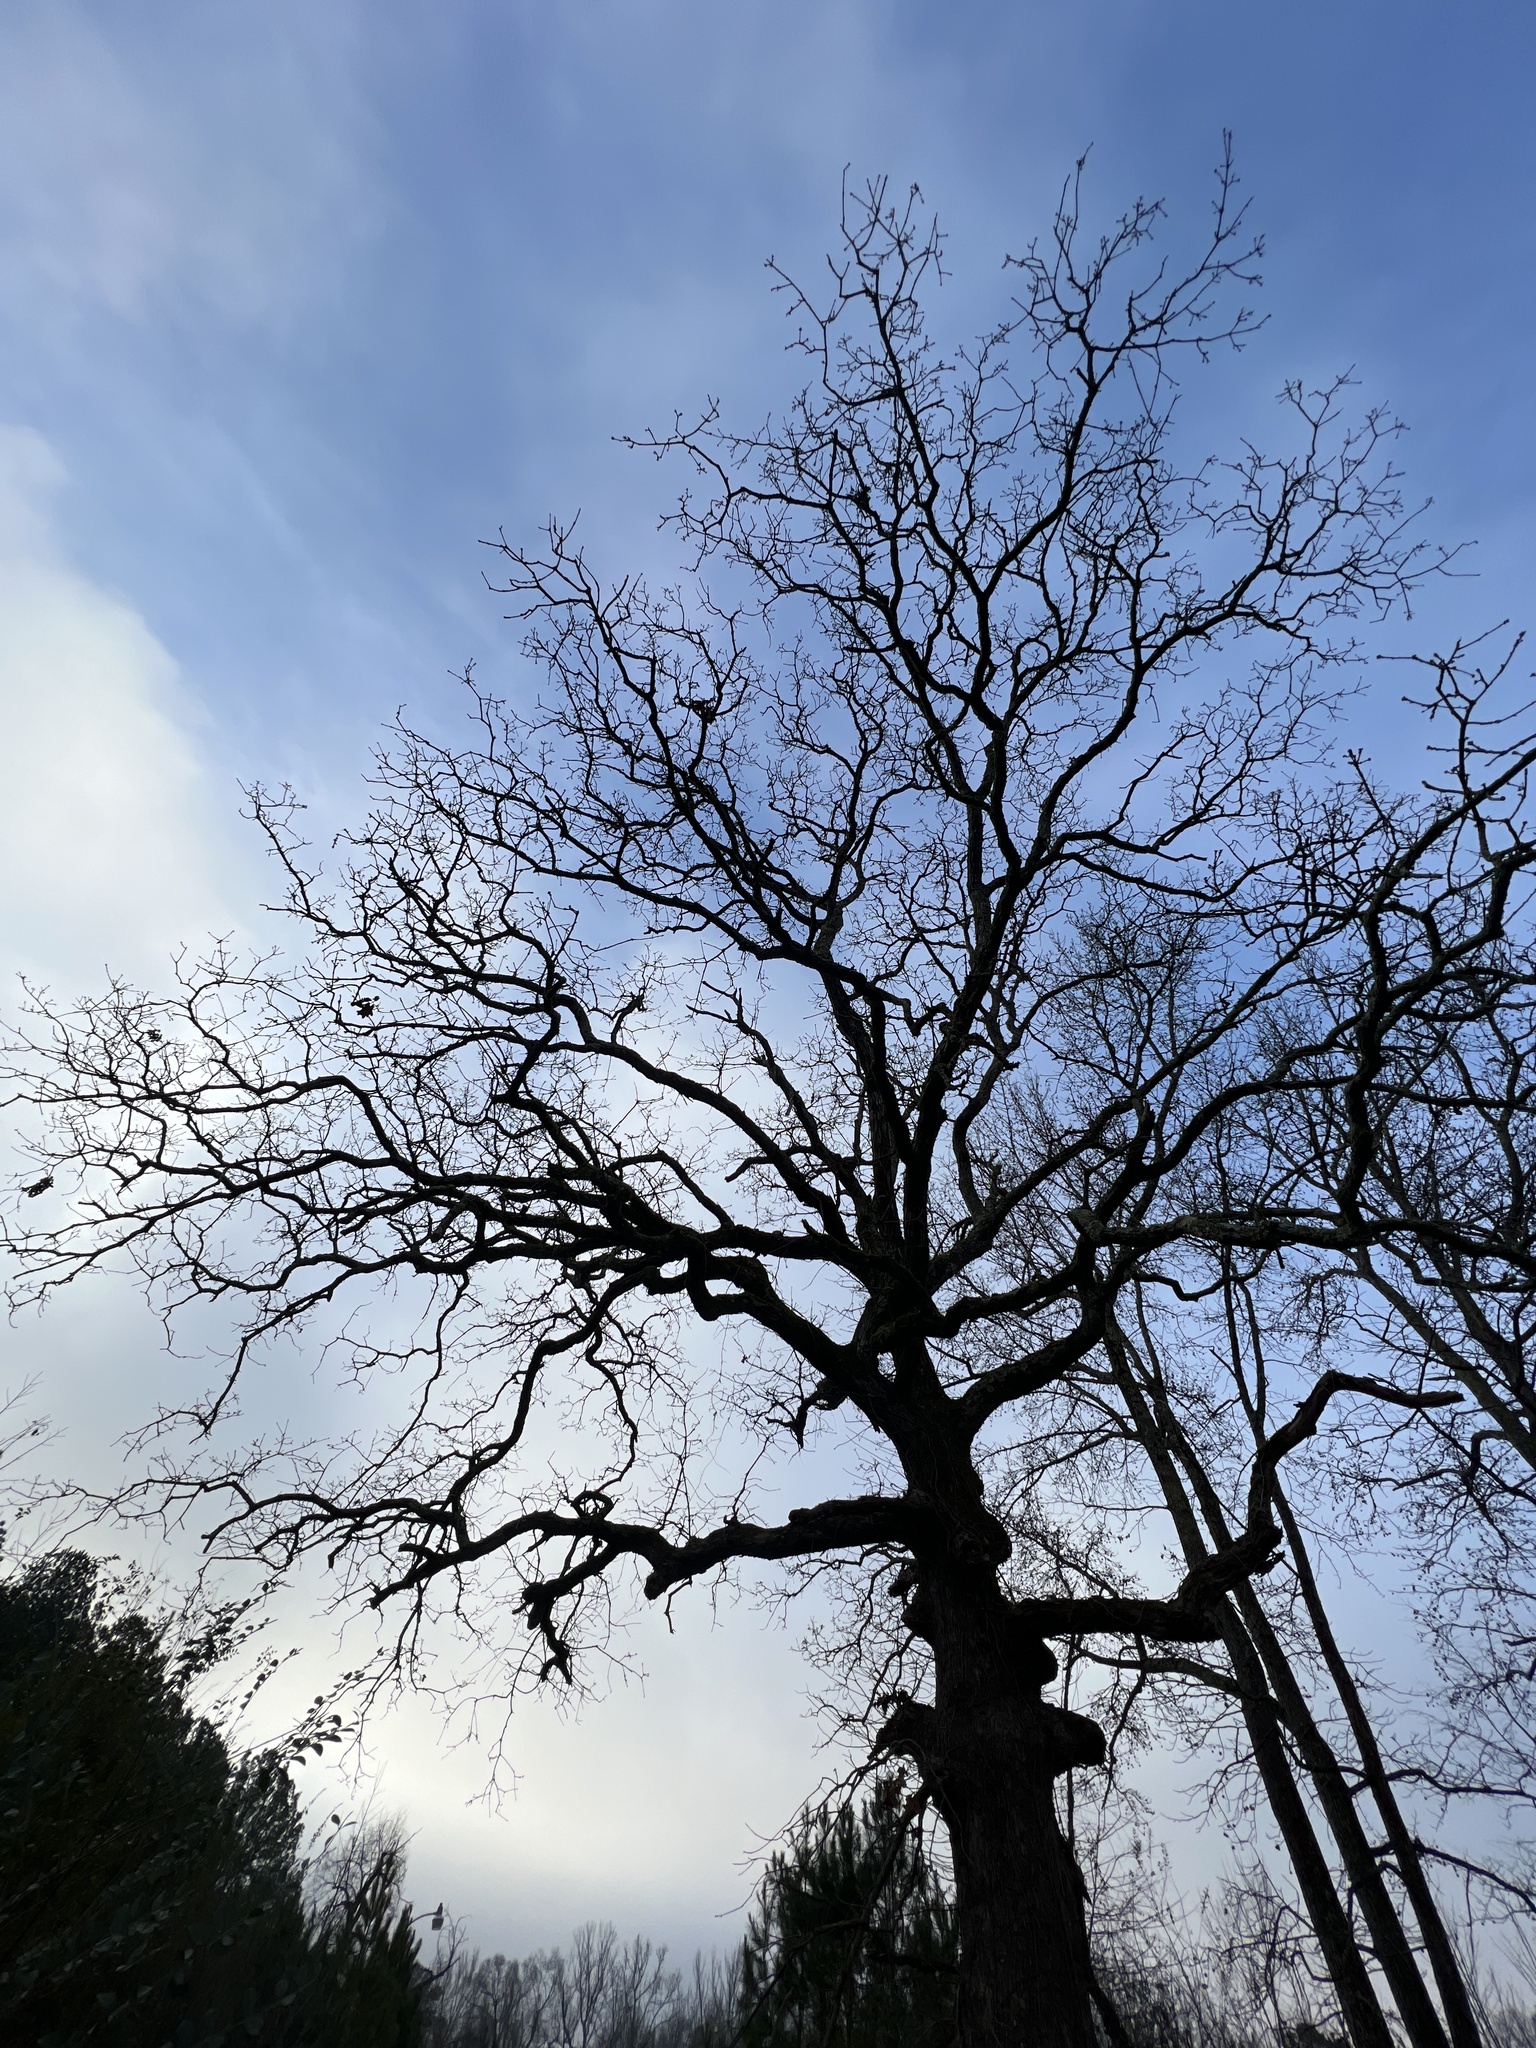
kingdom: Plantae
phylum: Tracheophyta
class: Magnoliopsida
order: Fagales
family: Fagaceae
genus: Quercus
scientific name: Quercus stellata
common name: Post oak
